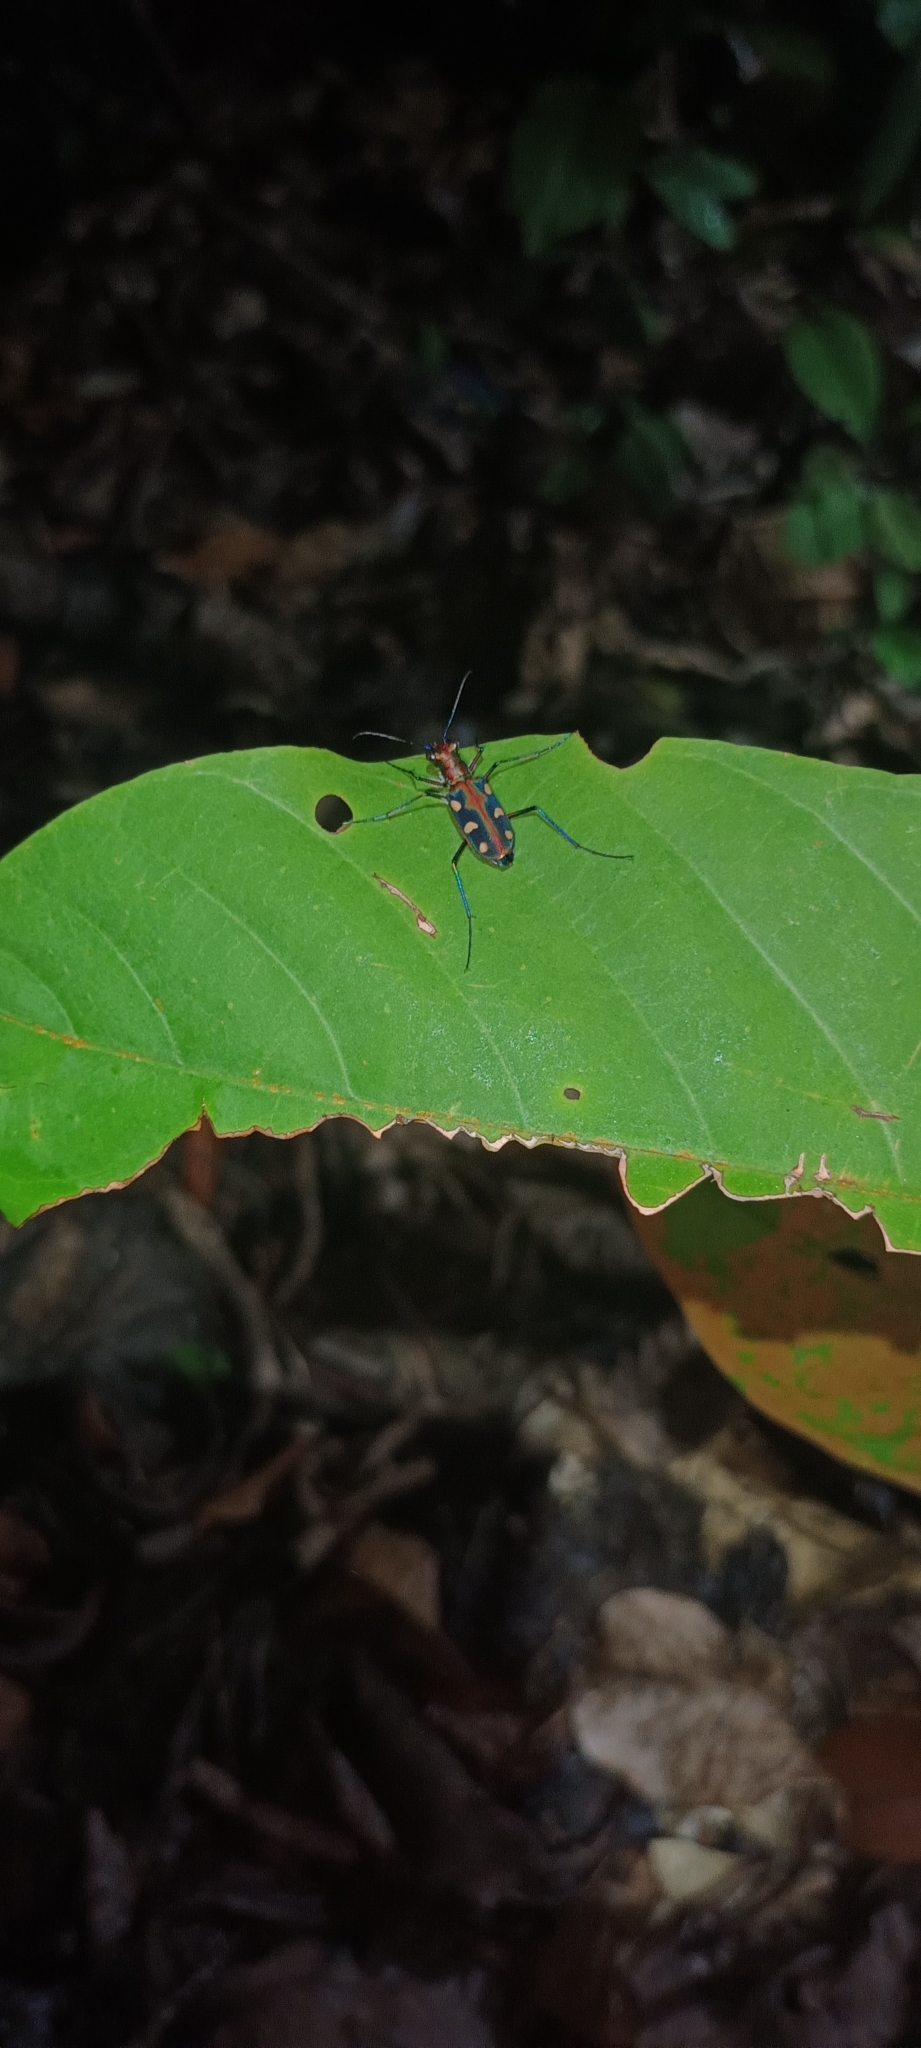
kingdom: Animalia
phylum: Arthropoda
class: Insecta
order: Coleoptera
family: Carabidae
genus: Cicindela
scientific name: Cicindela aurulenta
